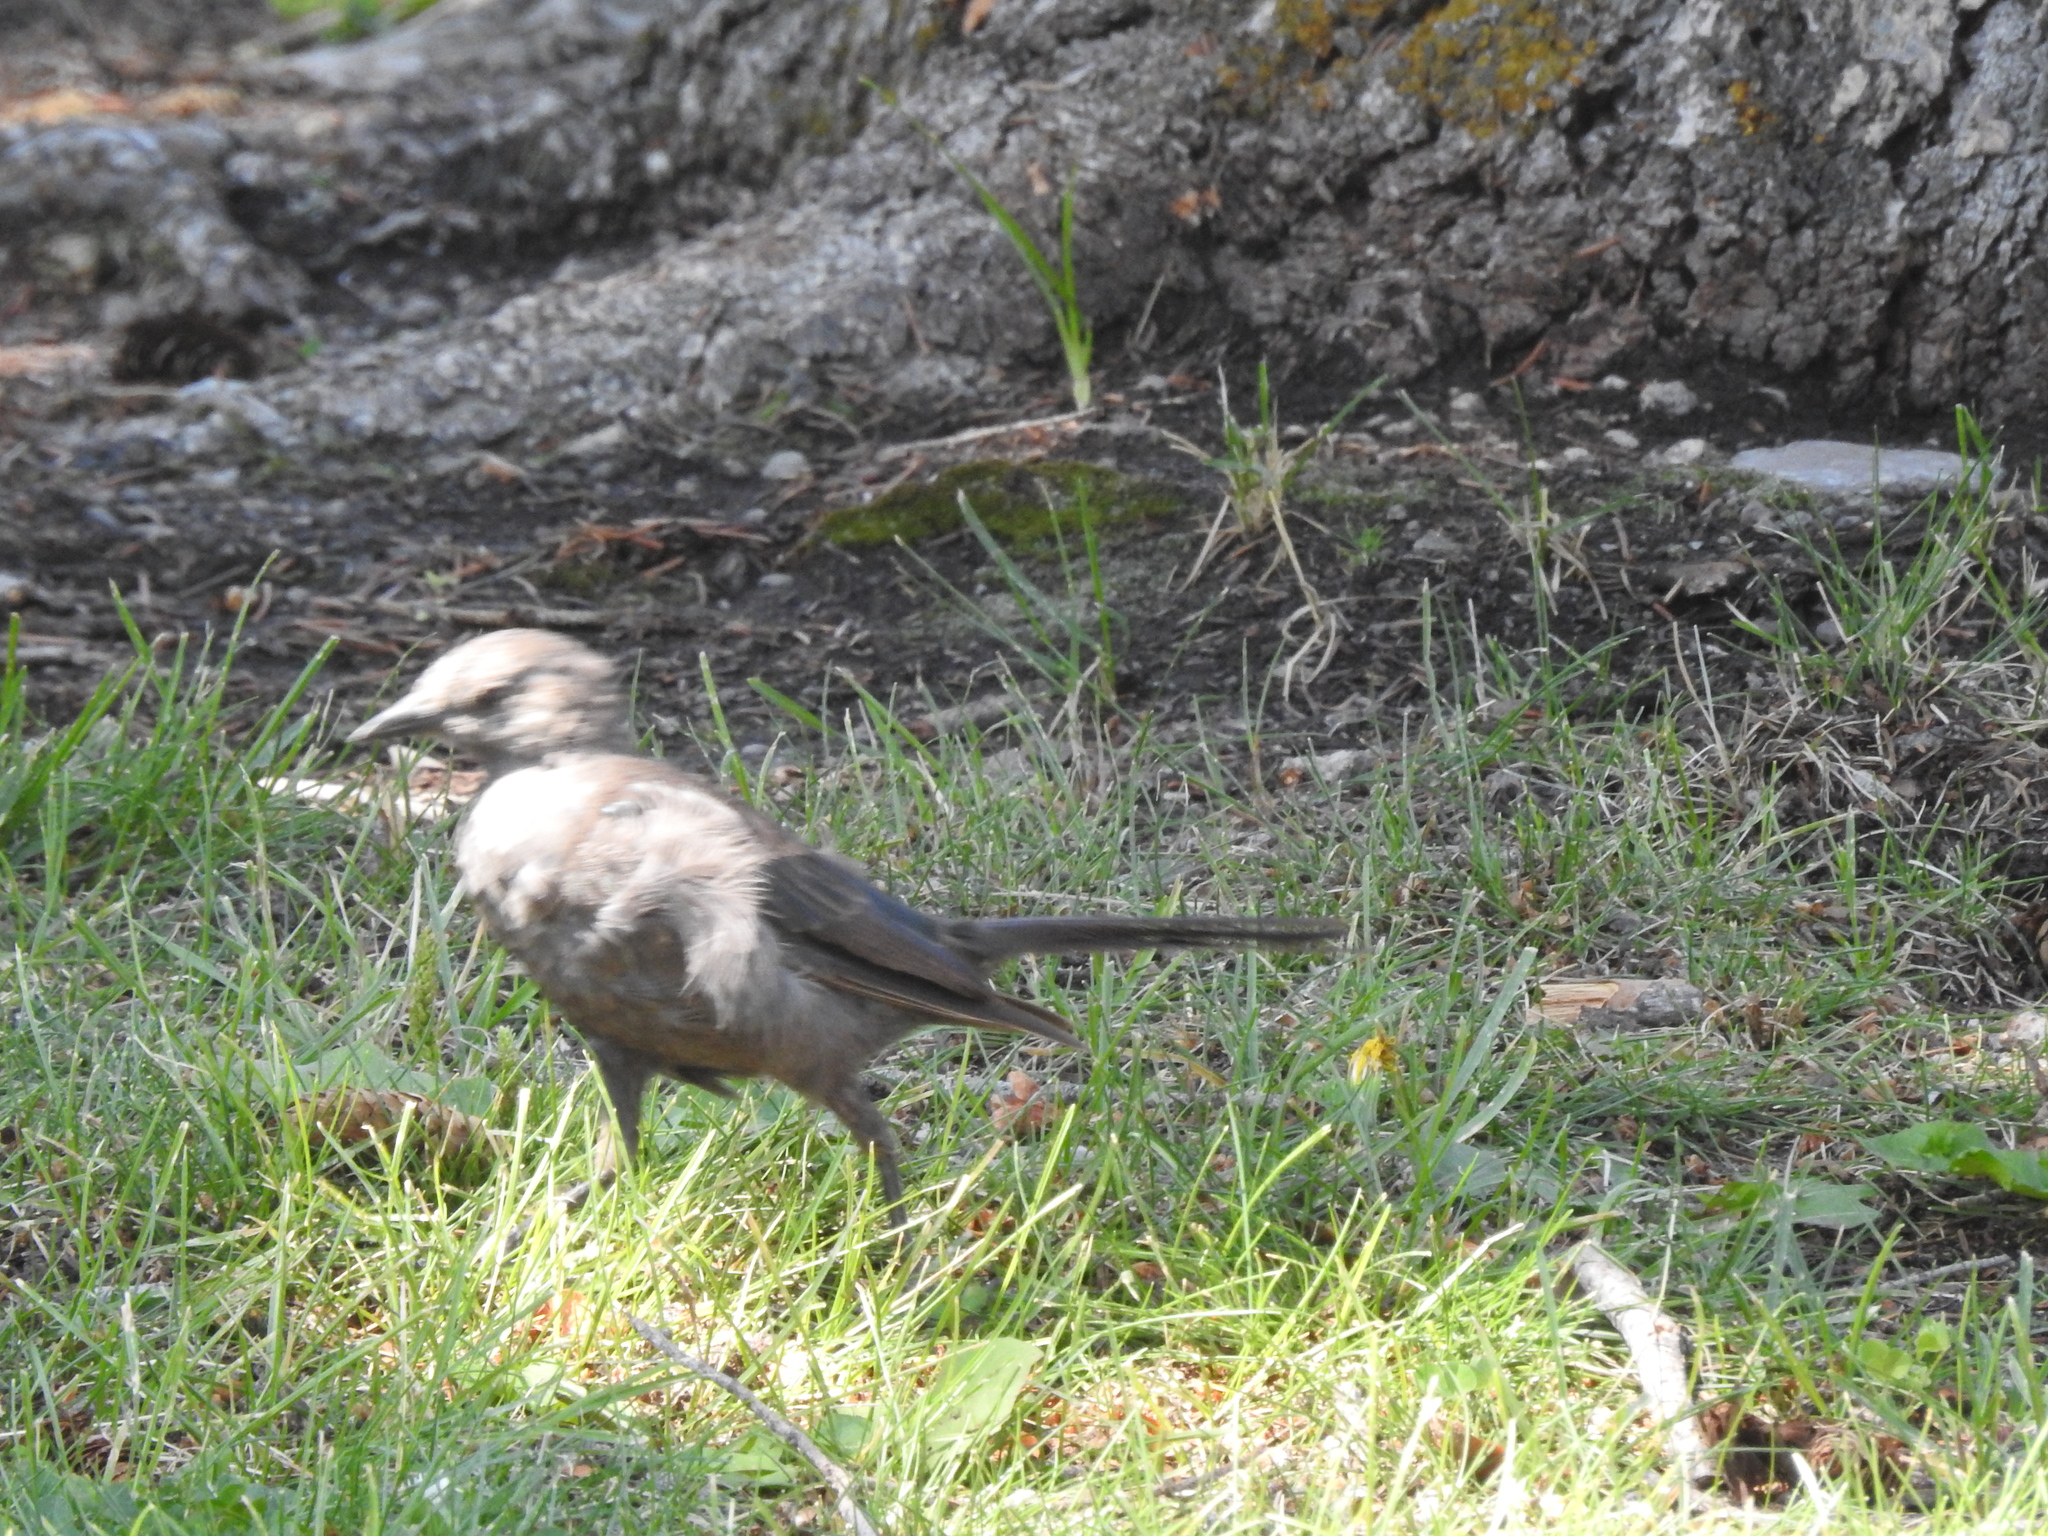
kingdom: Animalia
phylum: Chordata
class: Aves
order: Passeriformes
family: Icteridae
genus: Euphagus
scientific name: Euphagus cyanocephalus
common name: Brewer's blackbird
